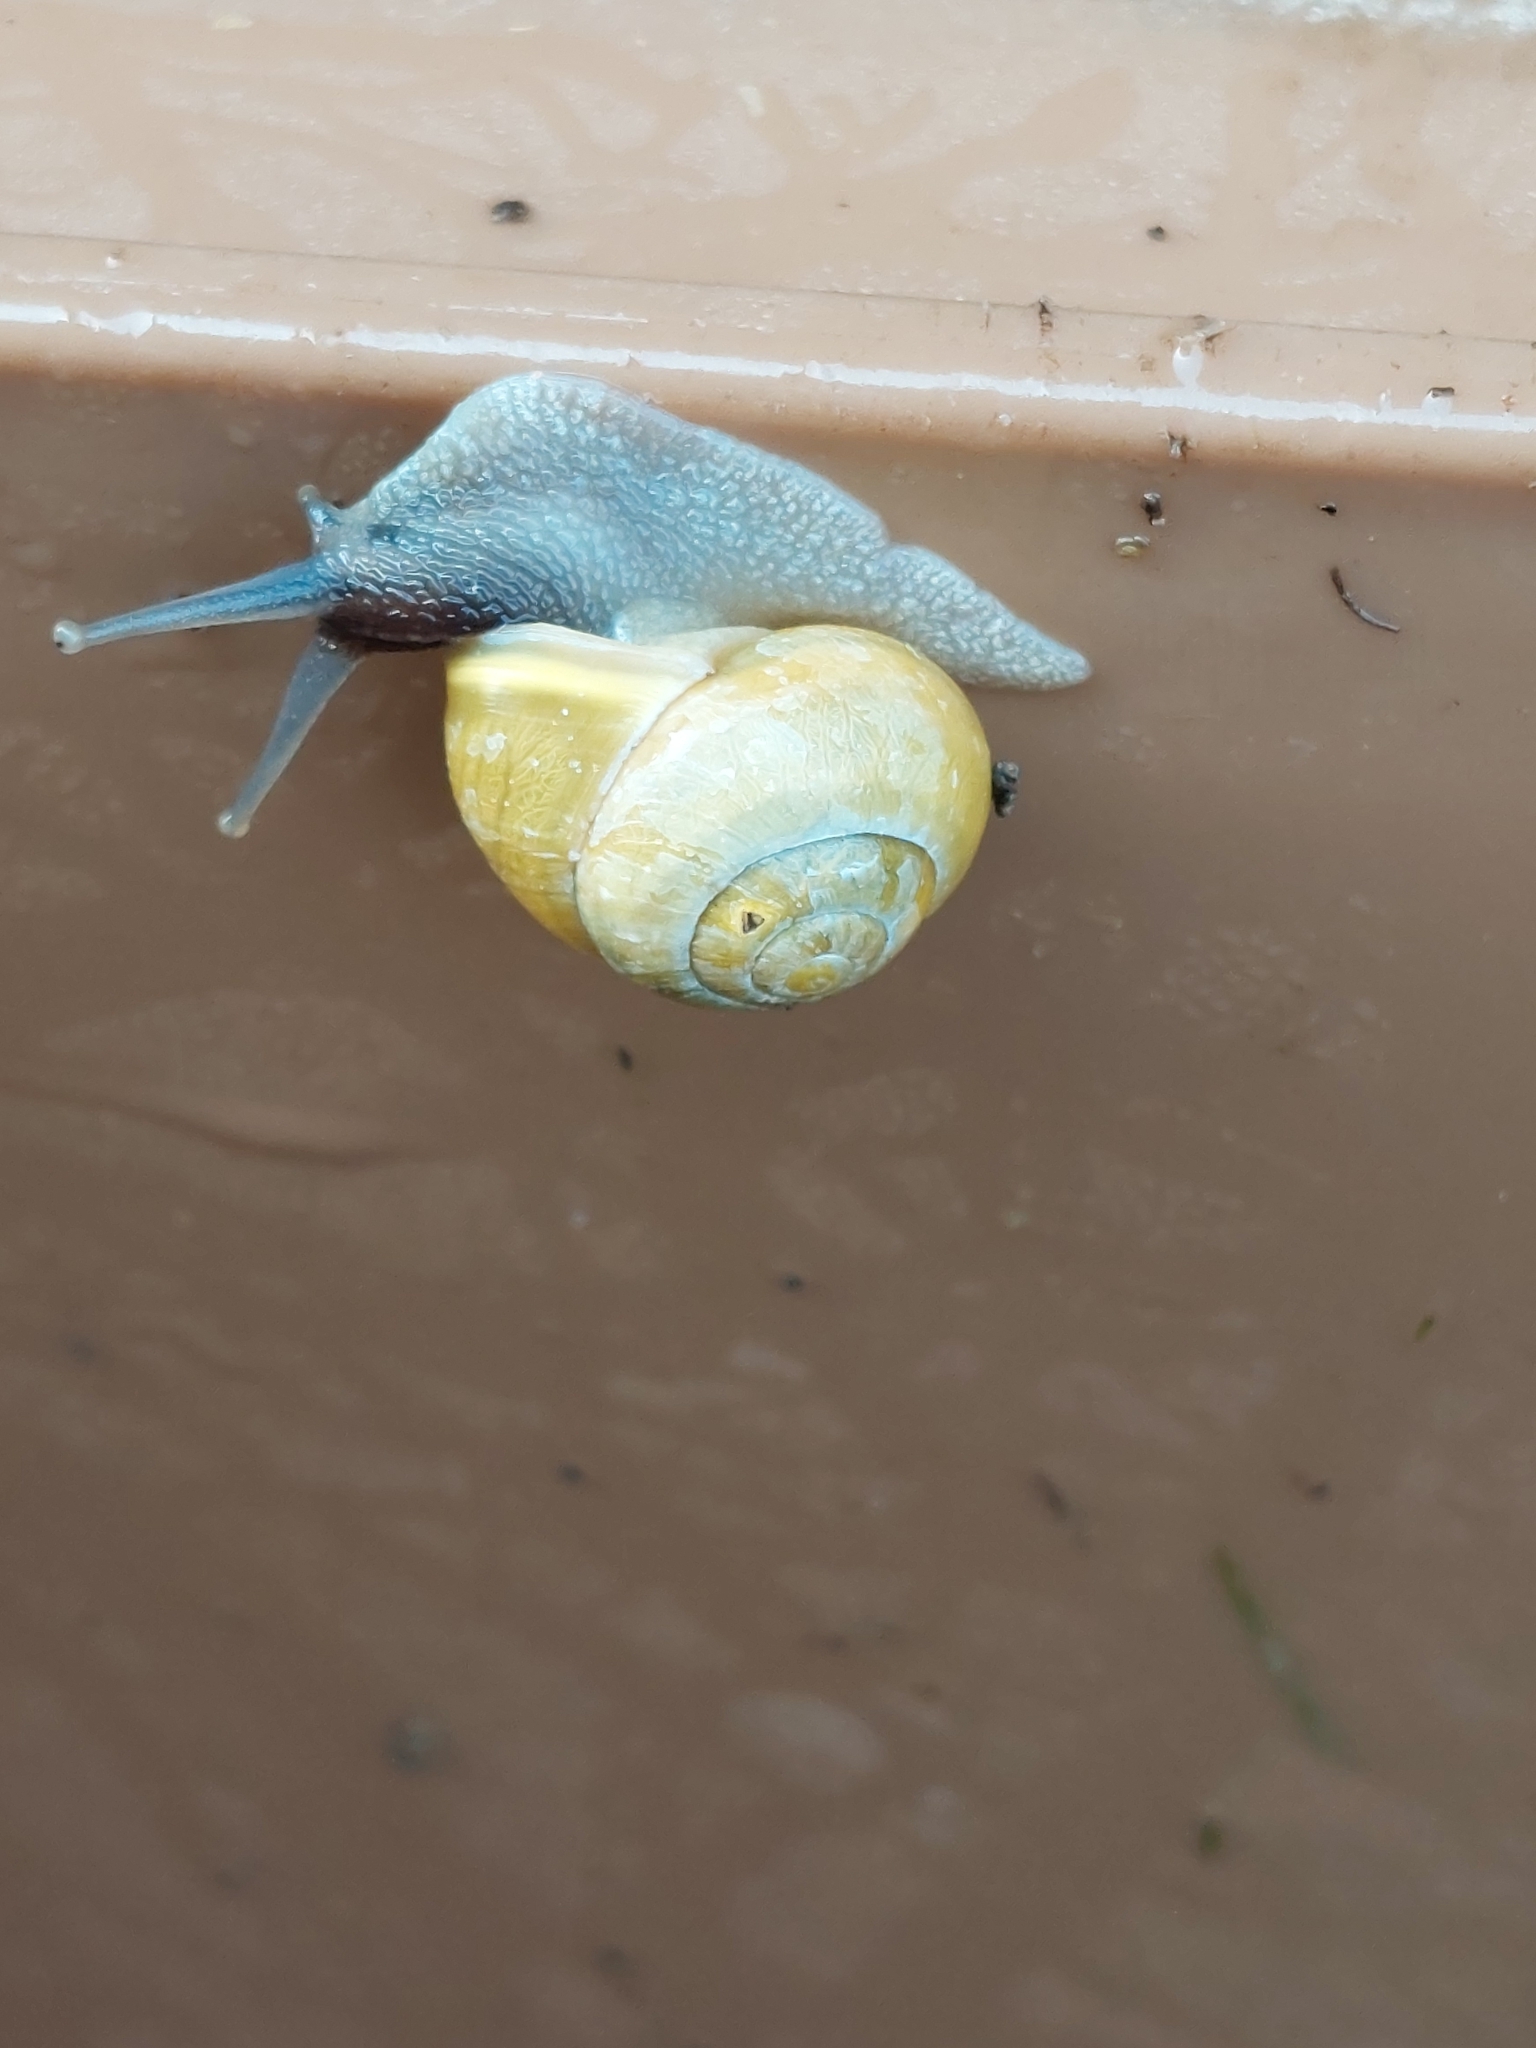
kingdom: Animalia
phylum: Mollusca
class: Gastropoda
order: Stylommatophora
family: Helicidae
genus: Cepaea
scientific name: Cepaea hortensis
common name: White-lip gardensnail
